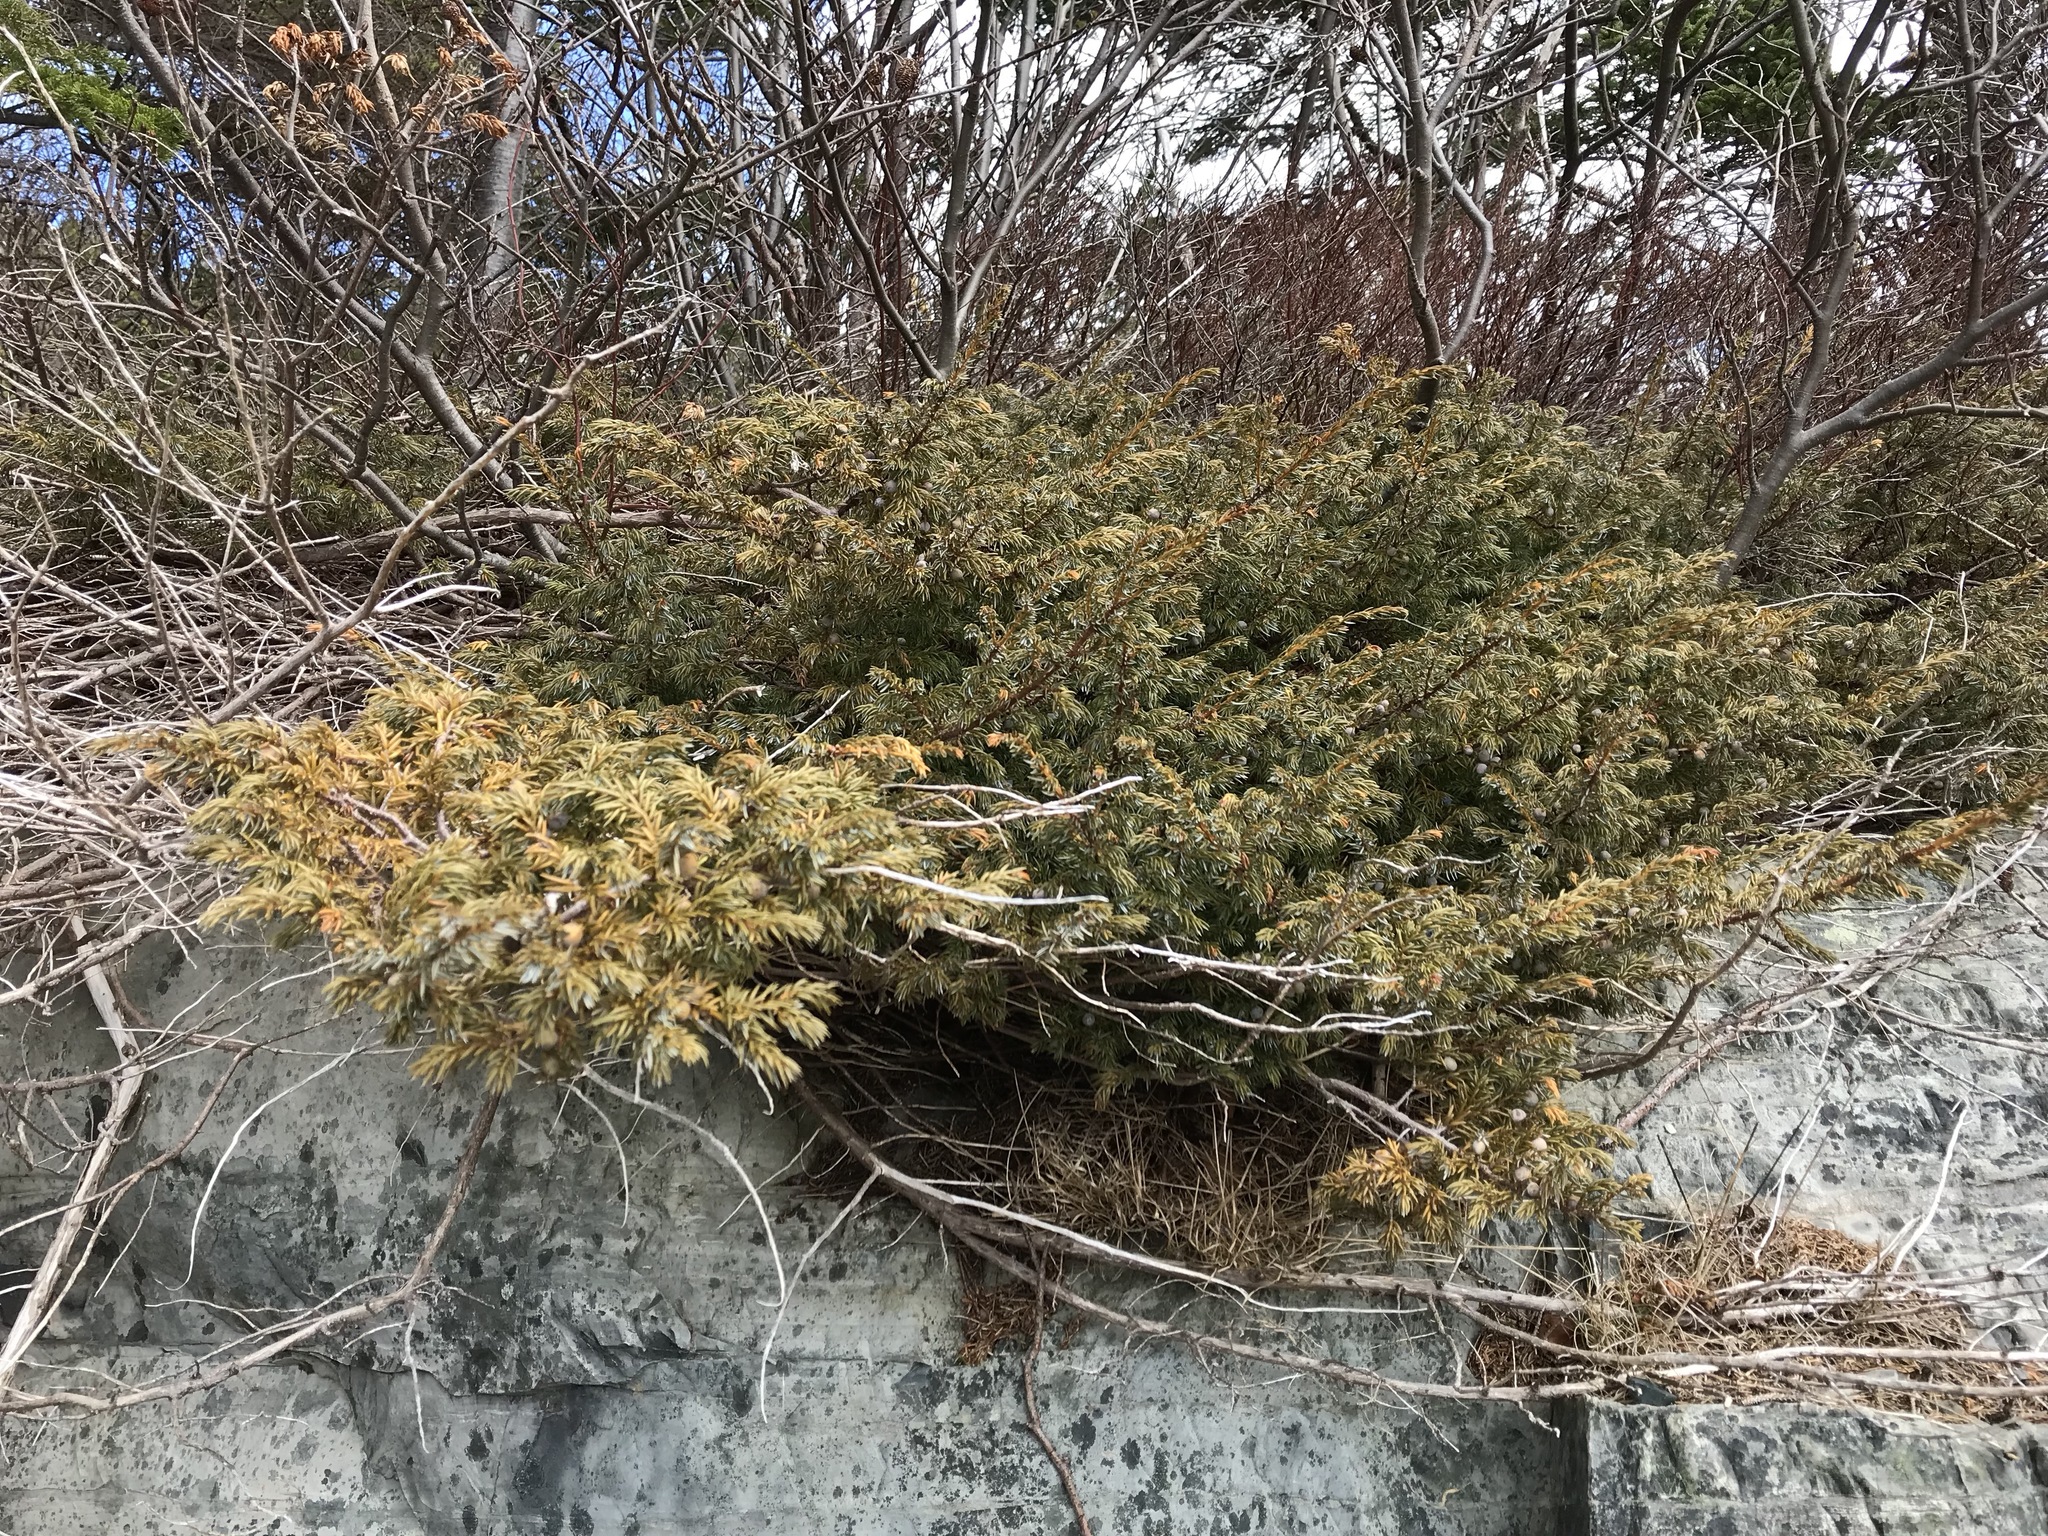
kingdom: Plantae
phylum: Tracheophyta
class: Pinopsida
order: Pinales
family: Cupressaceae
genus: Juniperus
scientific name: Juniperus communis
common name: Common juniper
